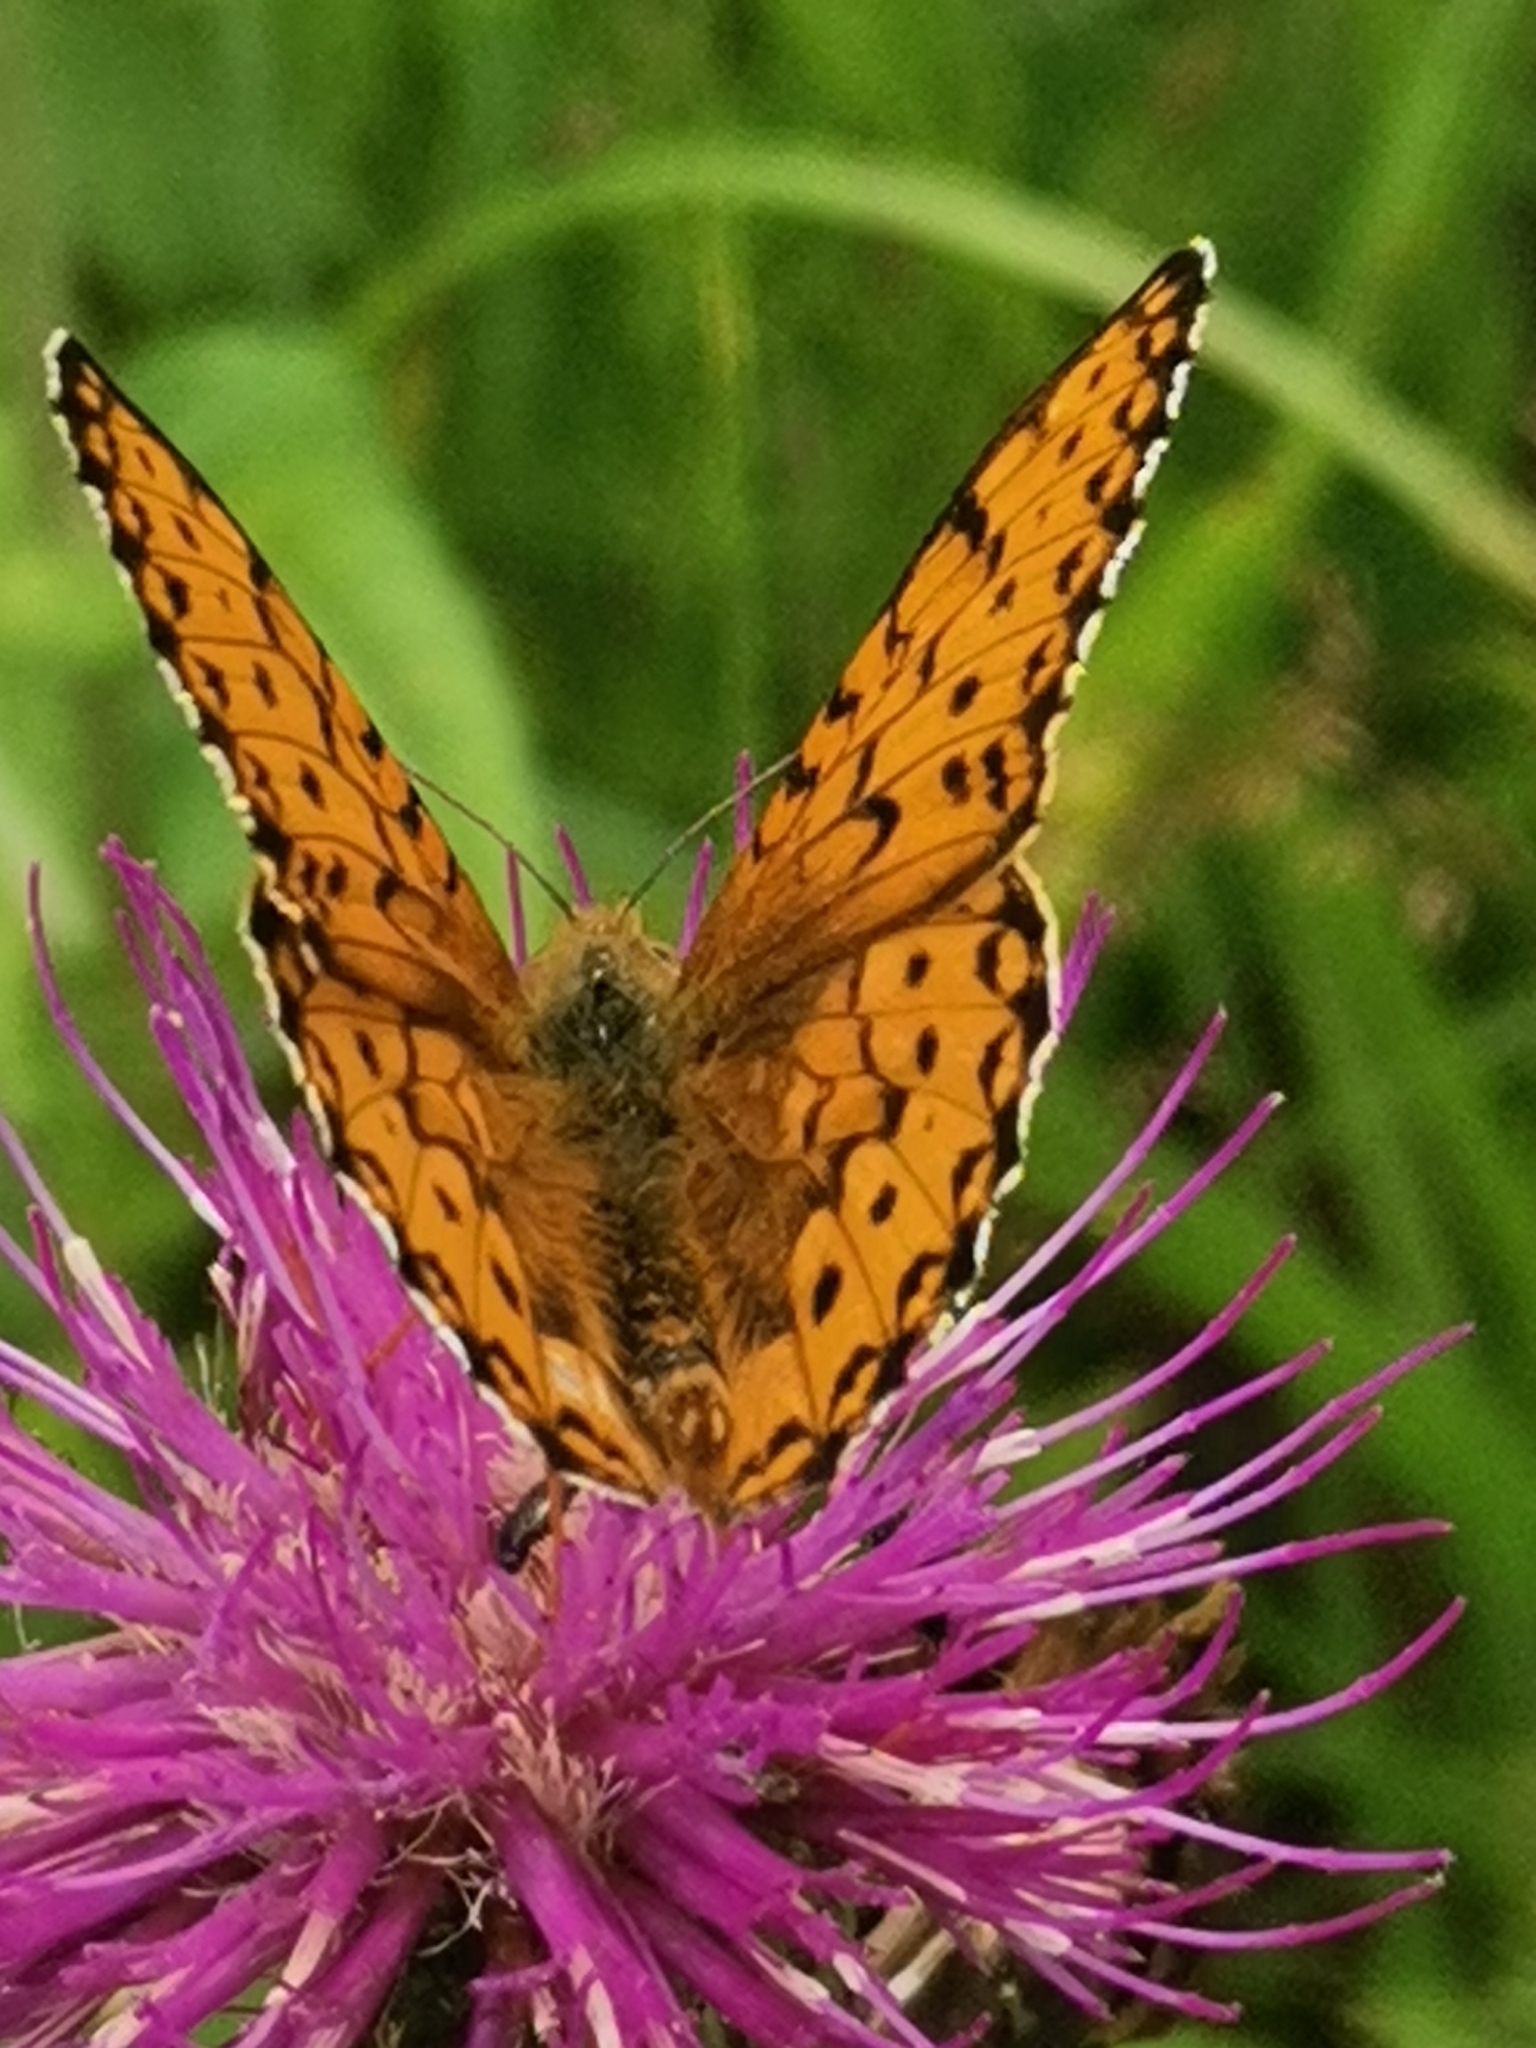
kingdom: Animalia
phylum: Arthropoda
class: Insecta
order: Lepidoptera
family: Nymphalidae
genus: Speyeria
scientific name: Speyeria aglaja
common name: Dark green fritillary
